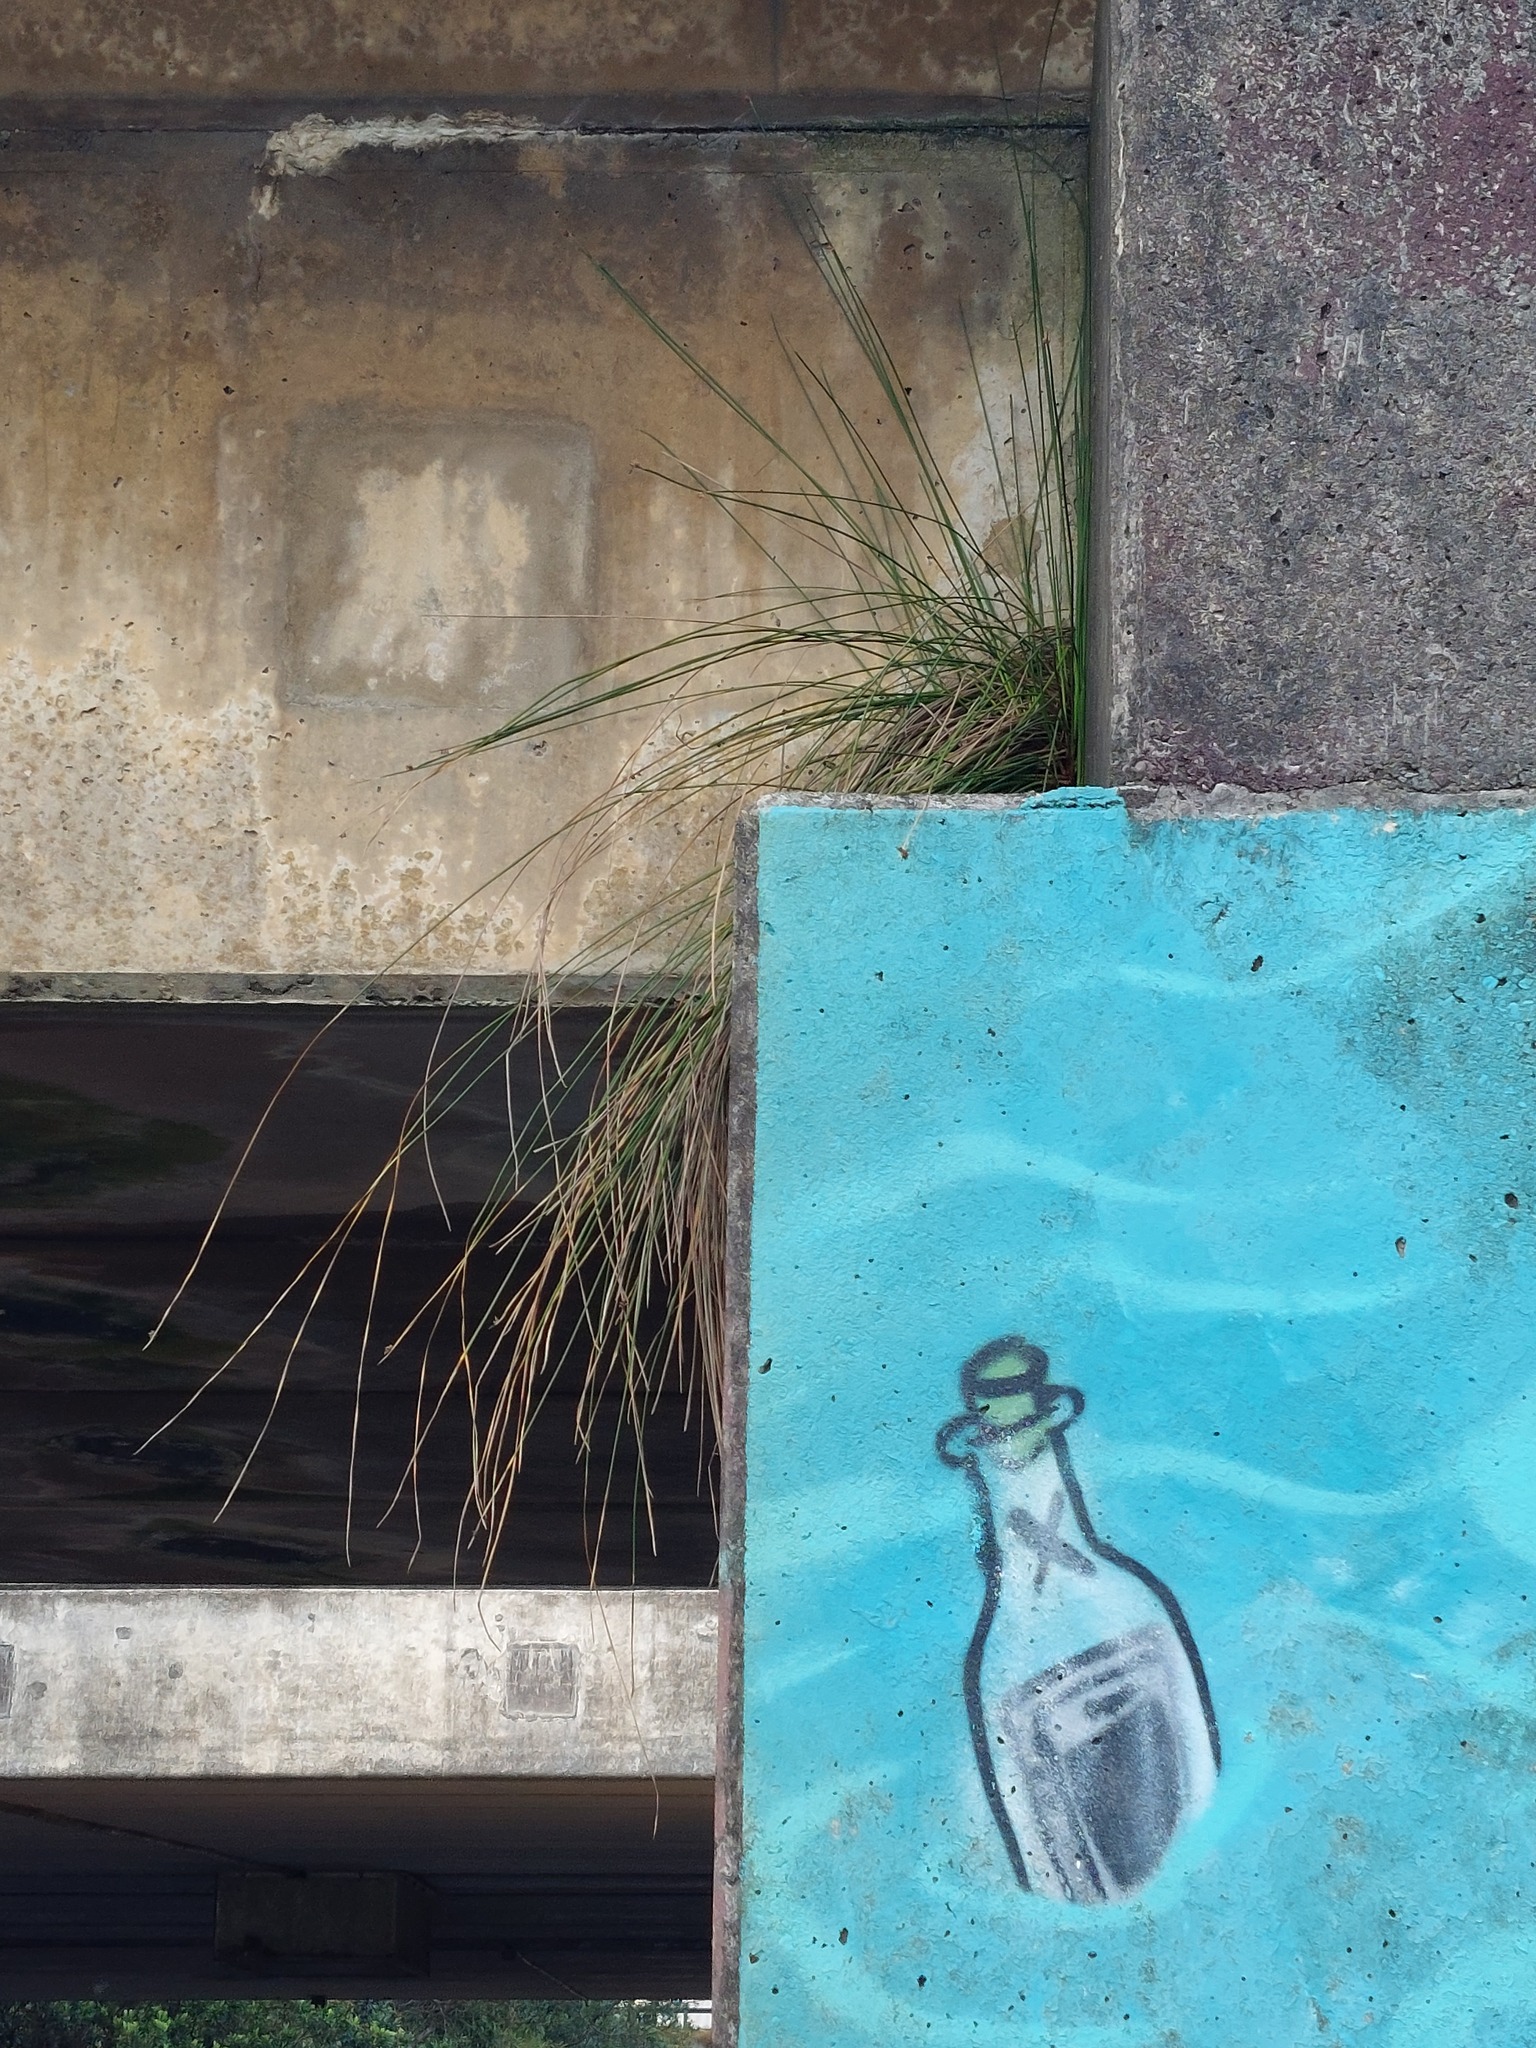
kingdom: Plantae
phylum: Tracheophyta
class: Liliopsida
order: Poales
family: Cyperaceae
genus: Ficinia
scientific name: Ficinia nodosa
